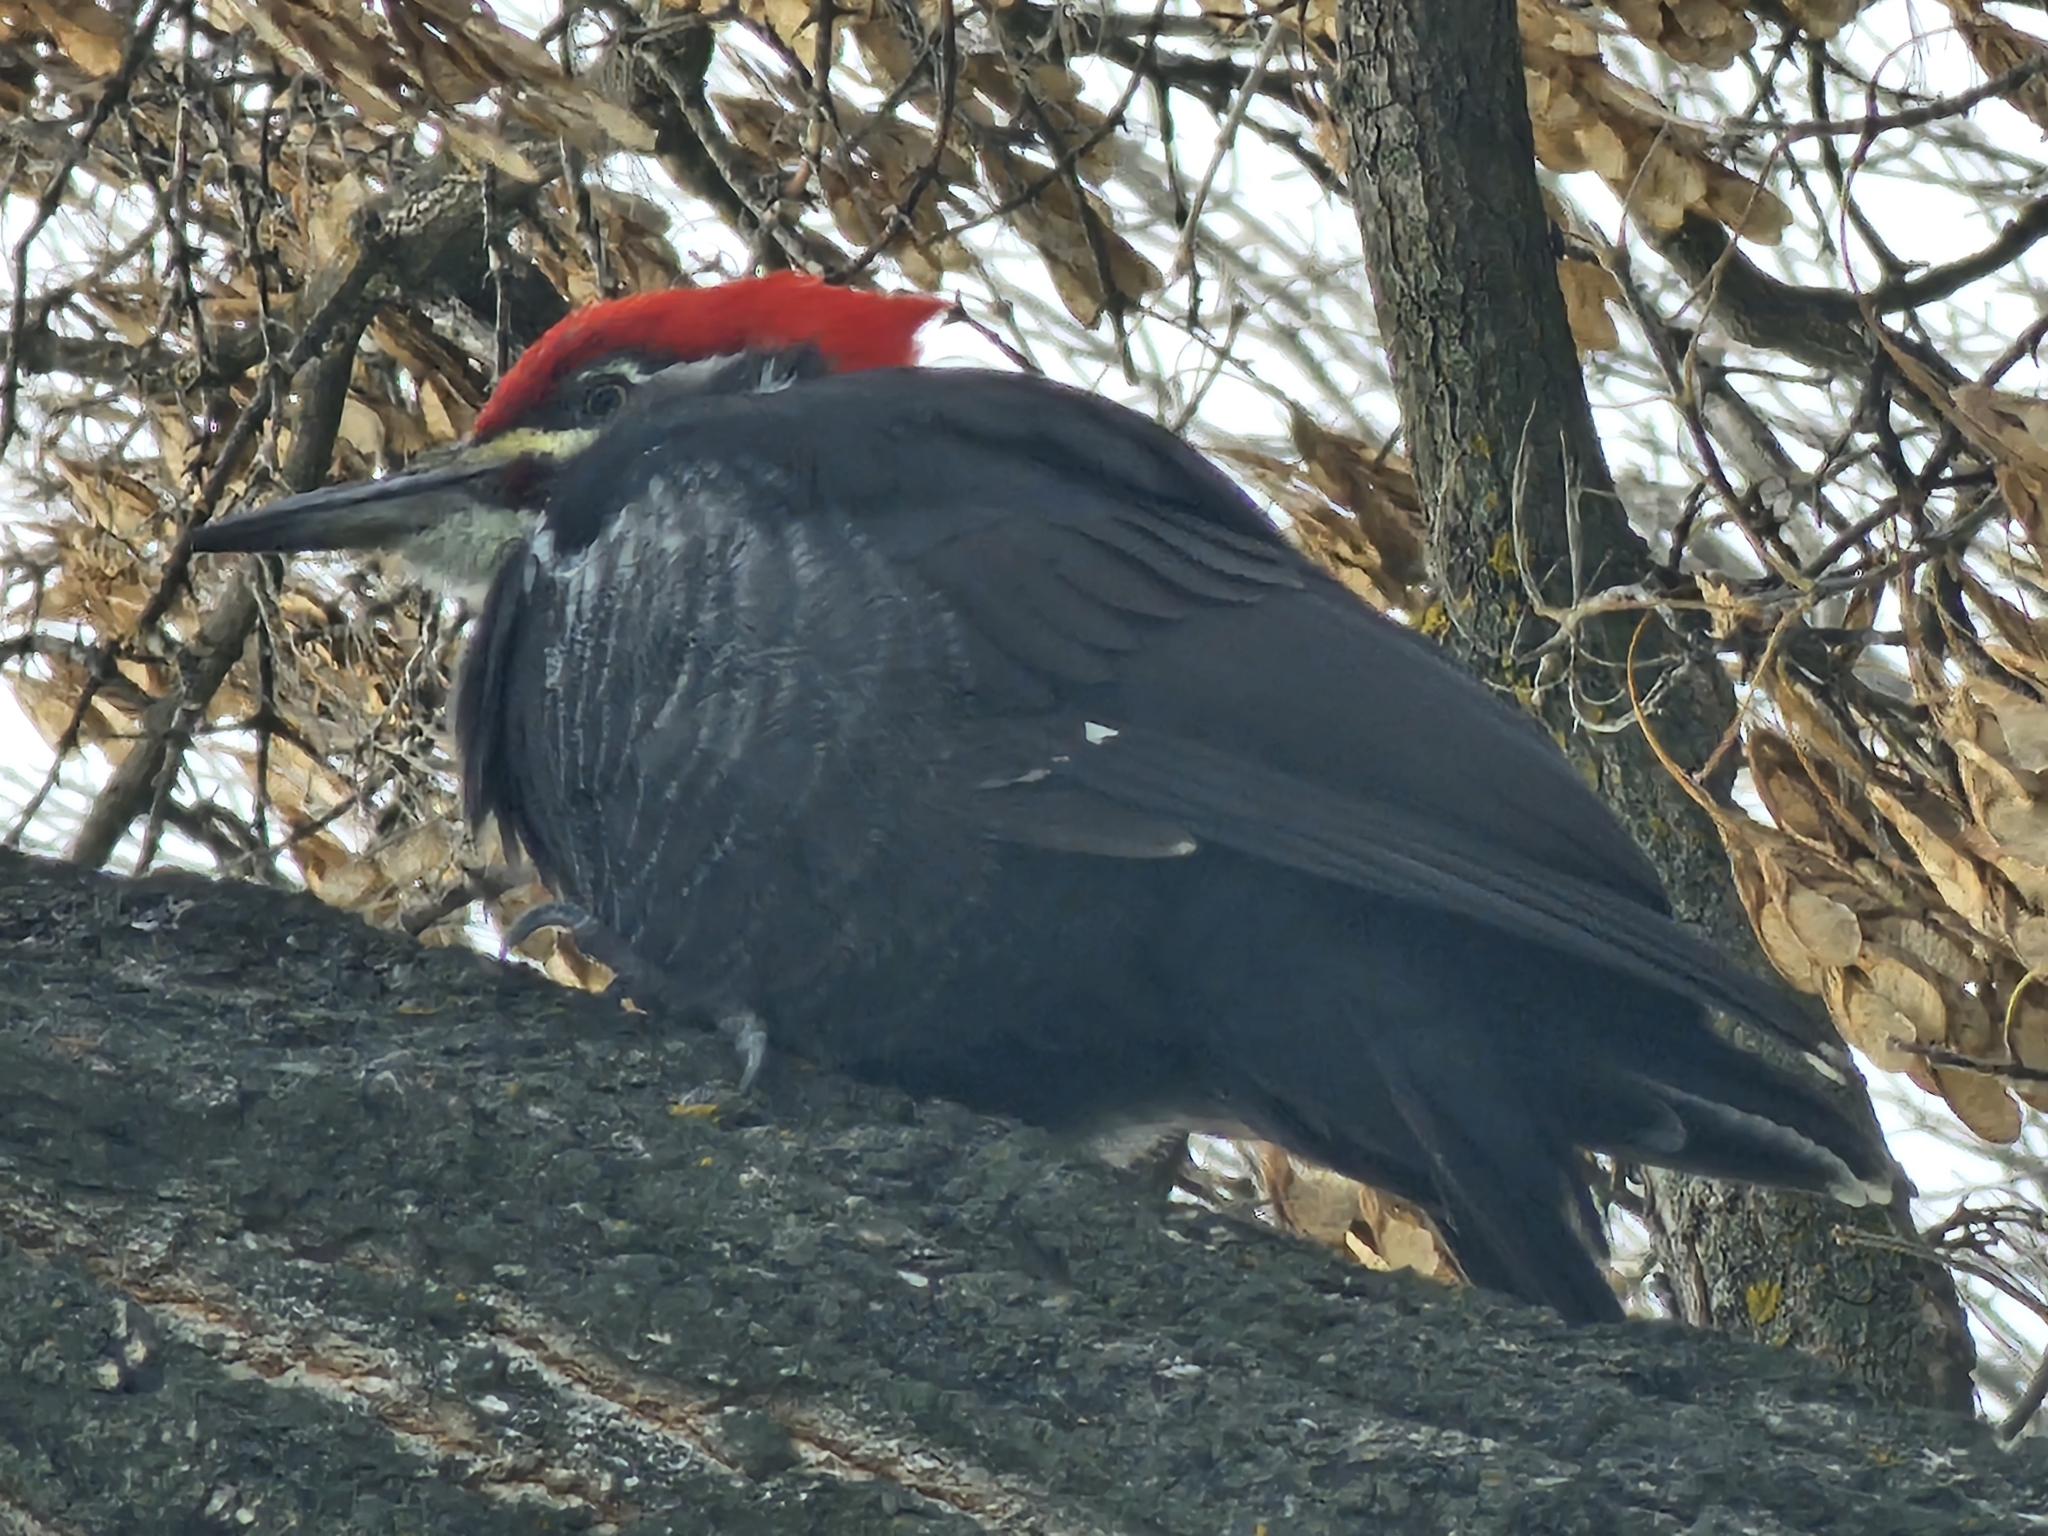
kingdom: Animalia
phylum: Chordata
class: Aves
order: Piciformes
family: Picidae
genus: Dryocopus
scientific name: Dryocopus pileatus
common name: Pileated woodpecker
